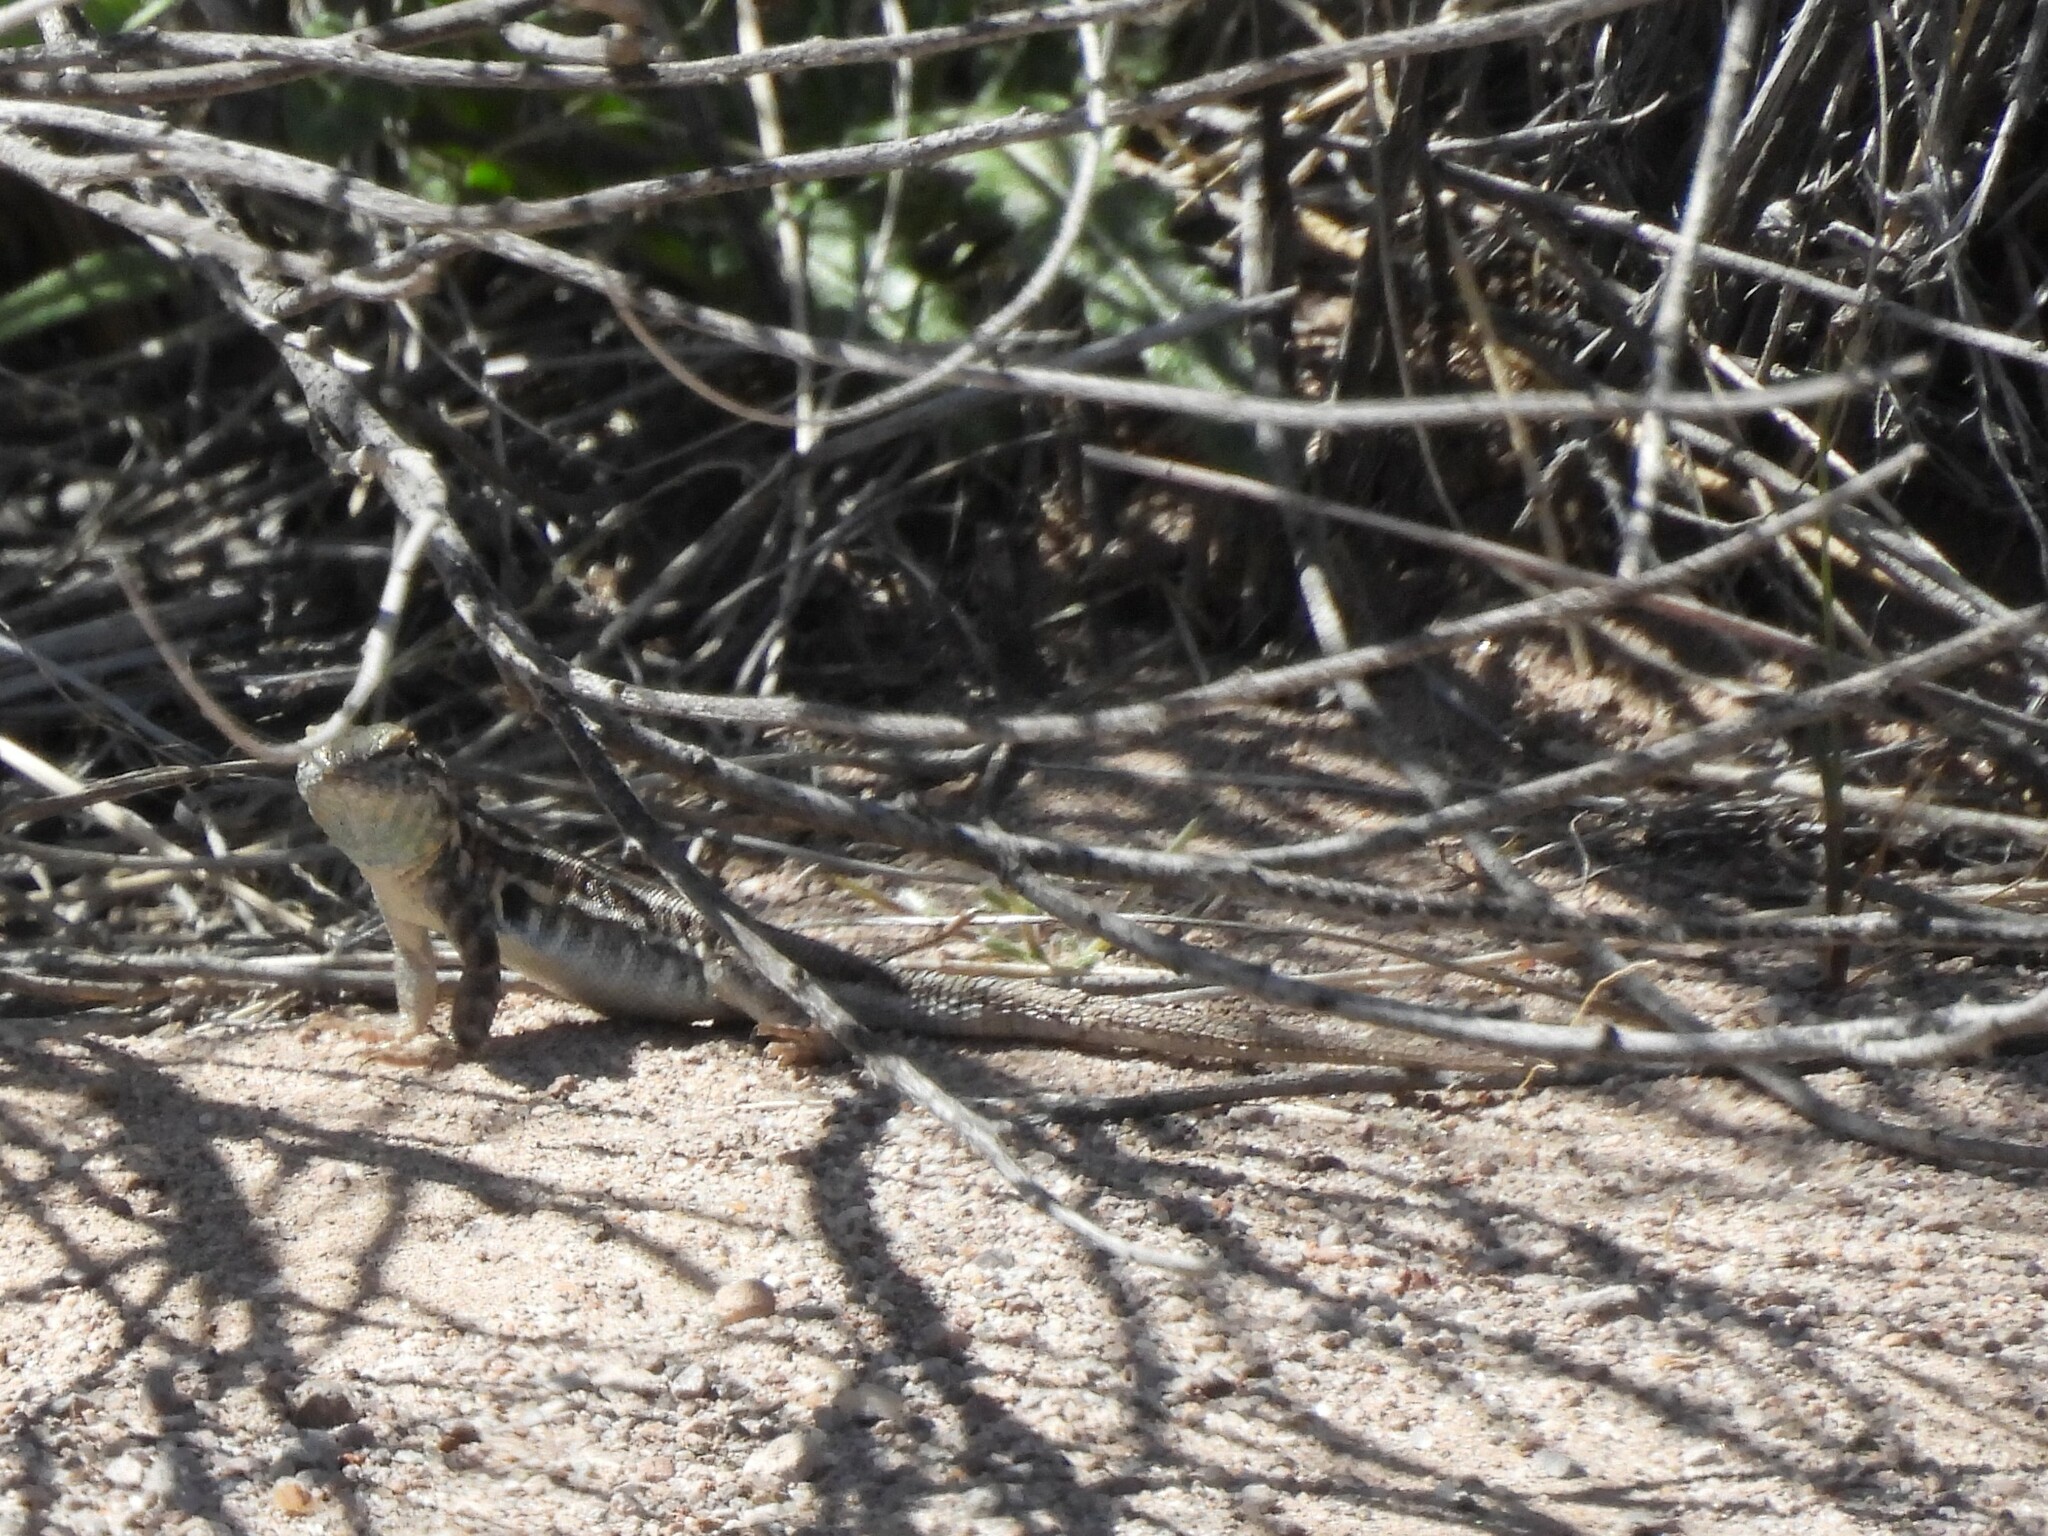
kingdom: Animalia
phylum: Chordata
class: Squamata
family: Phrynosomatidae
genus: Uta
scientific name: Uta stansburiana
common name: Side-blotched lizard
